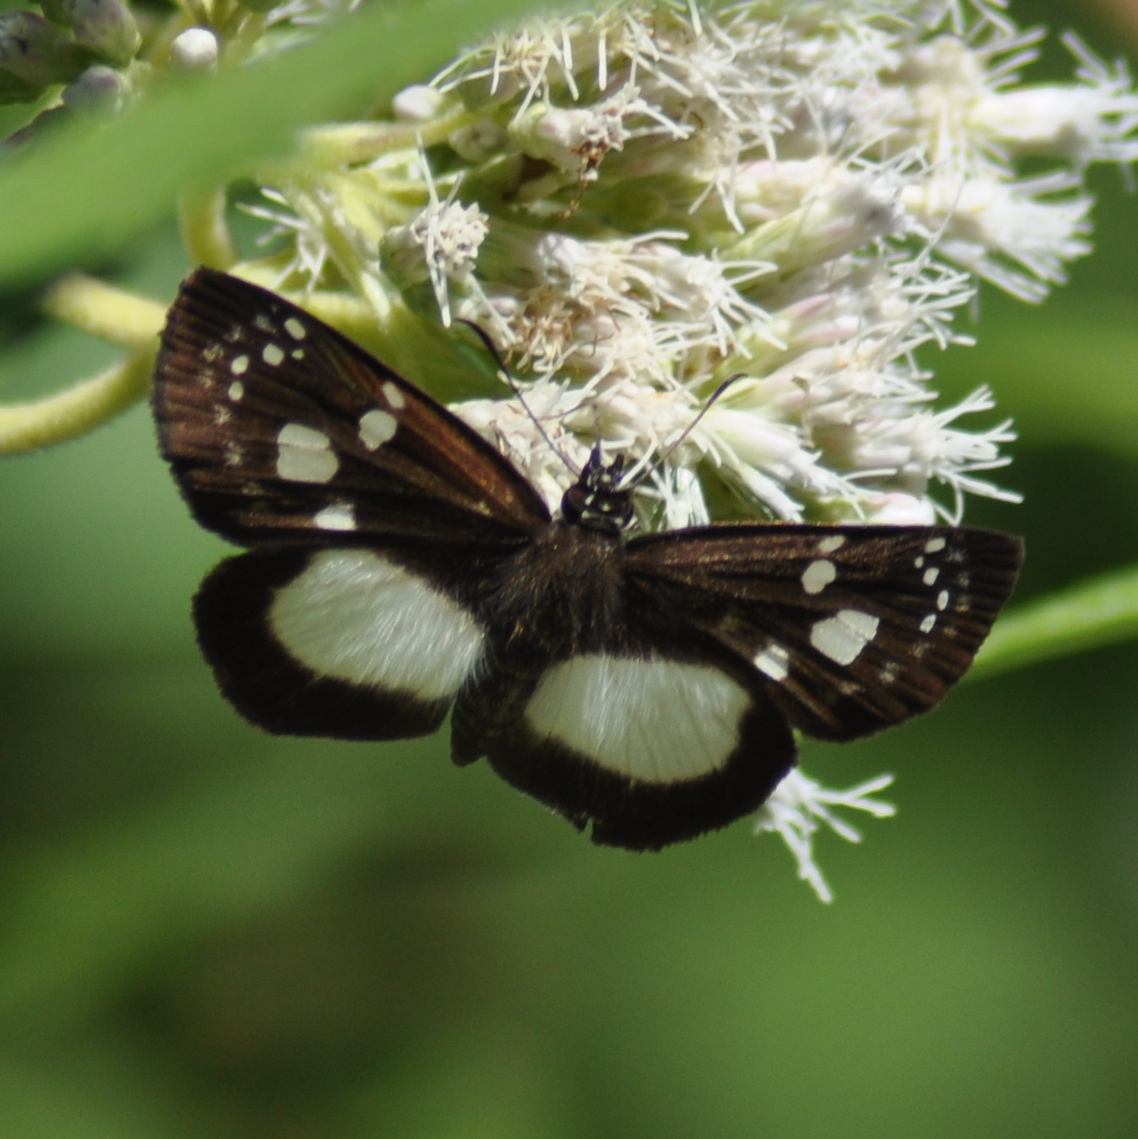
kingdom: Animalia
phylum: Arthropoda
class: Insecta
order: Lepidoptera
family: Hesperiidae
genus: Milanion
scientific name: Milanion leucaspis
